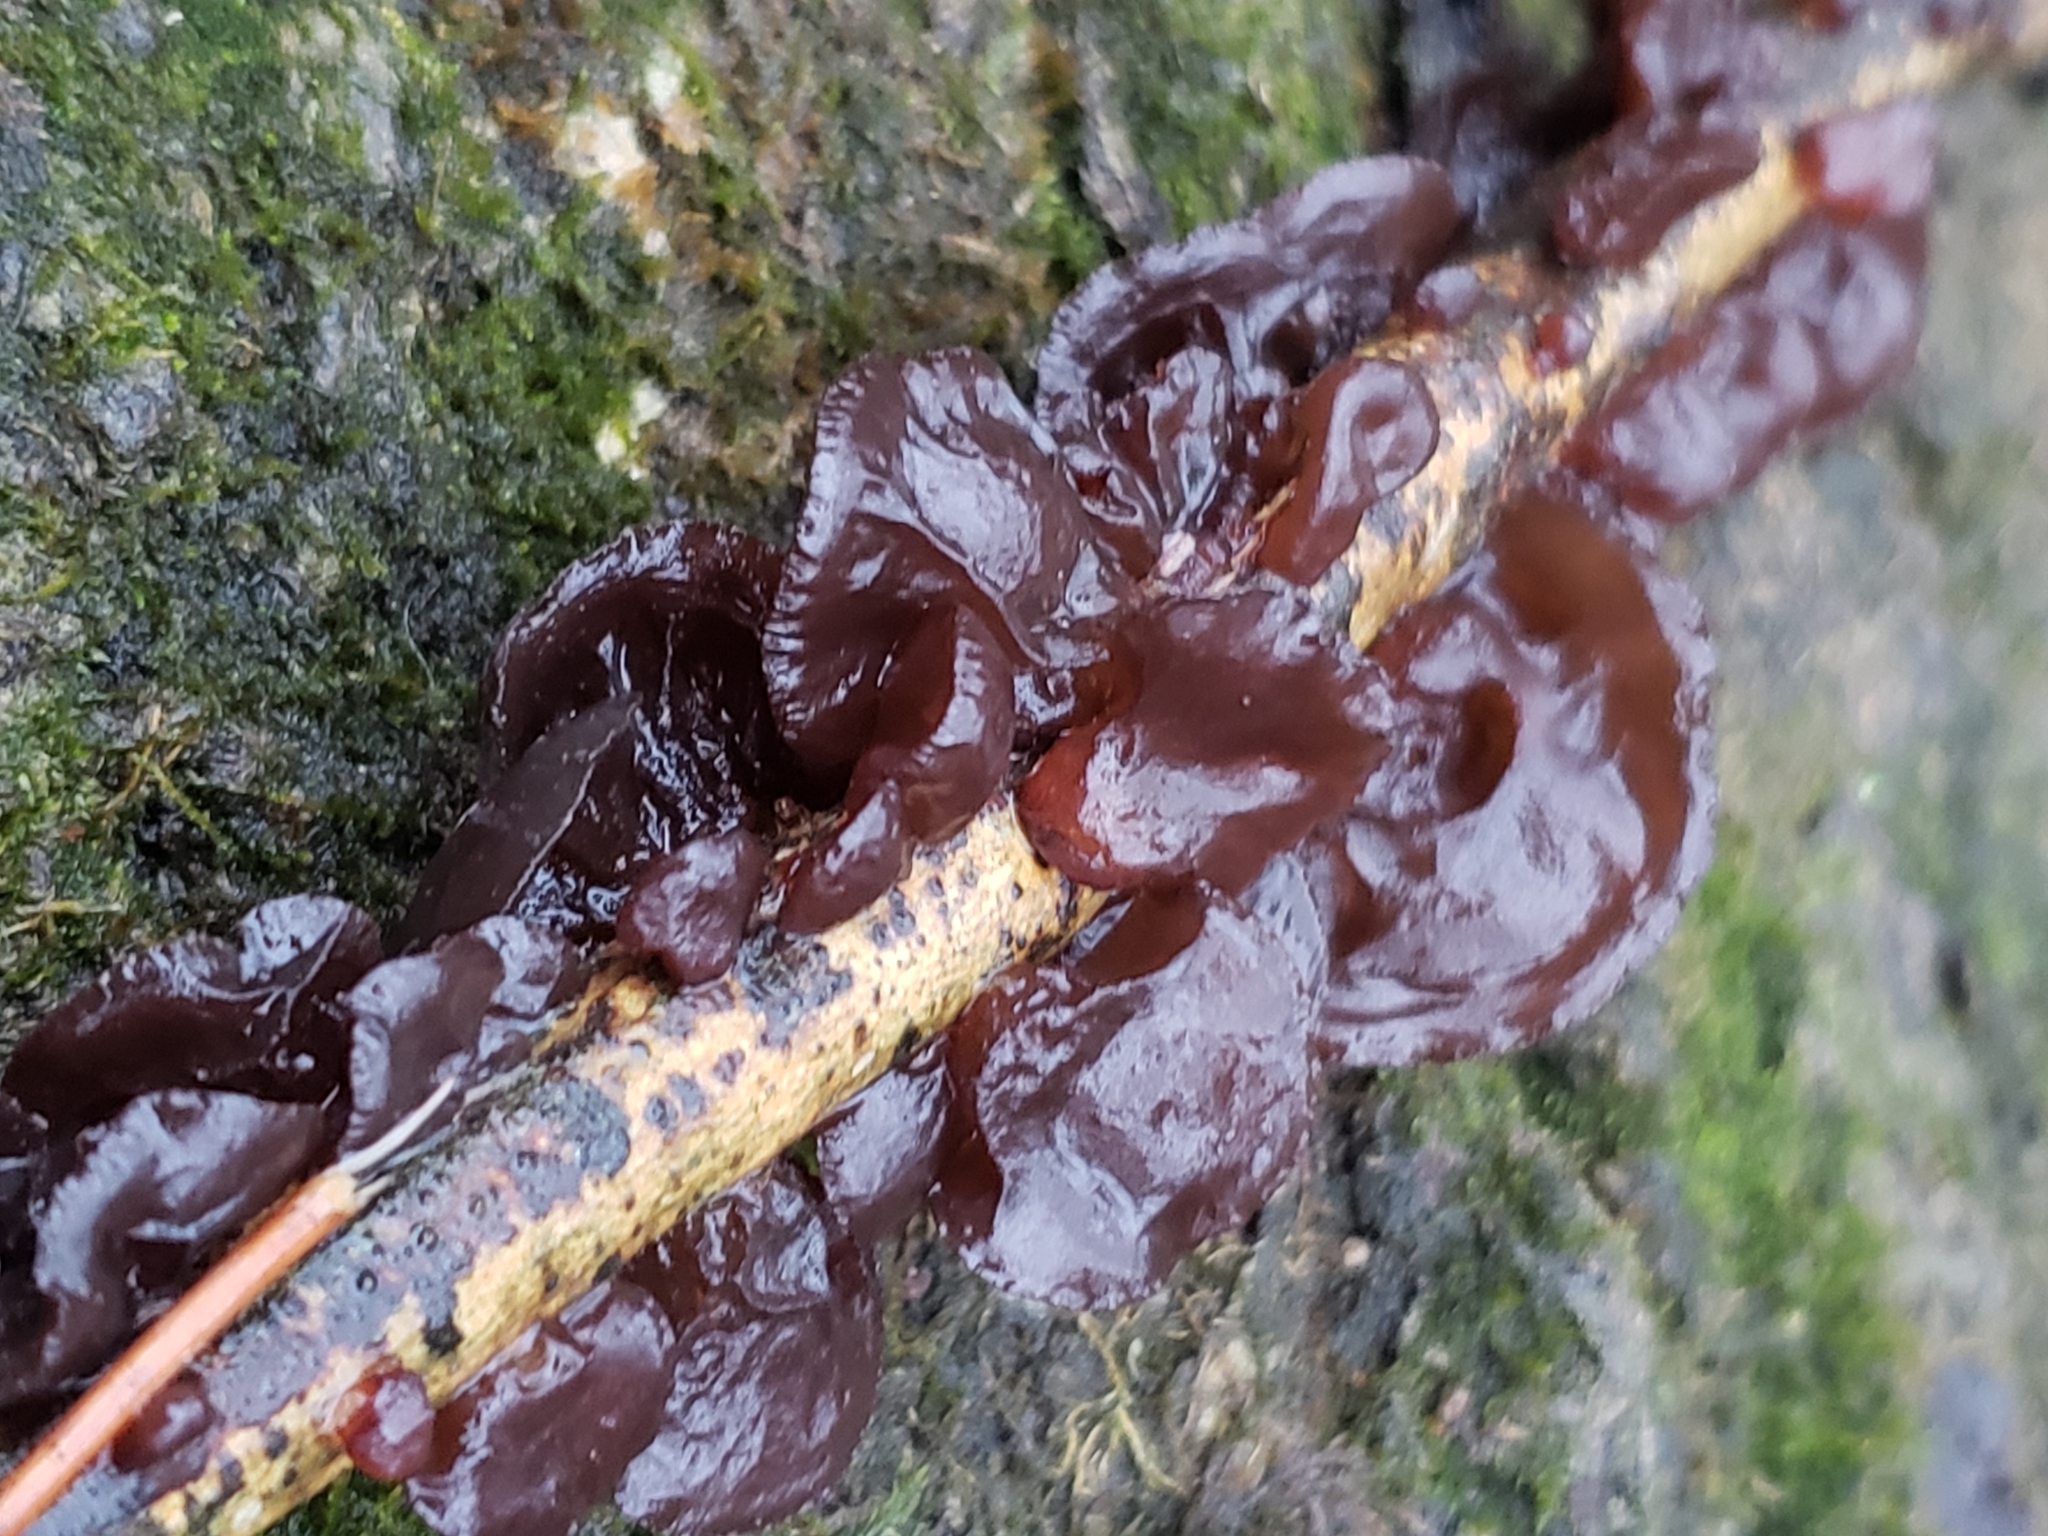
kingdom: Fungi
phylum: Basidiomycota
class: Agaricomycetes
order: Auriculariales
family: Auriculariaceae
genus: Exidia
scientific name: Exidia
